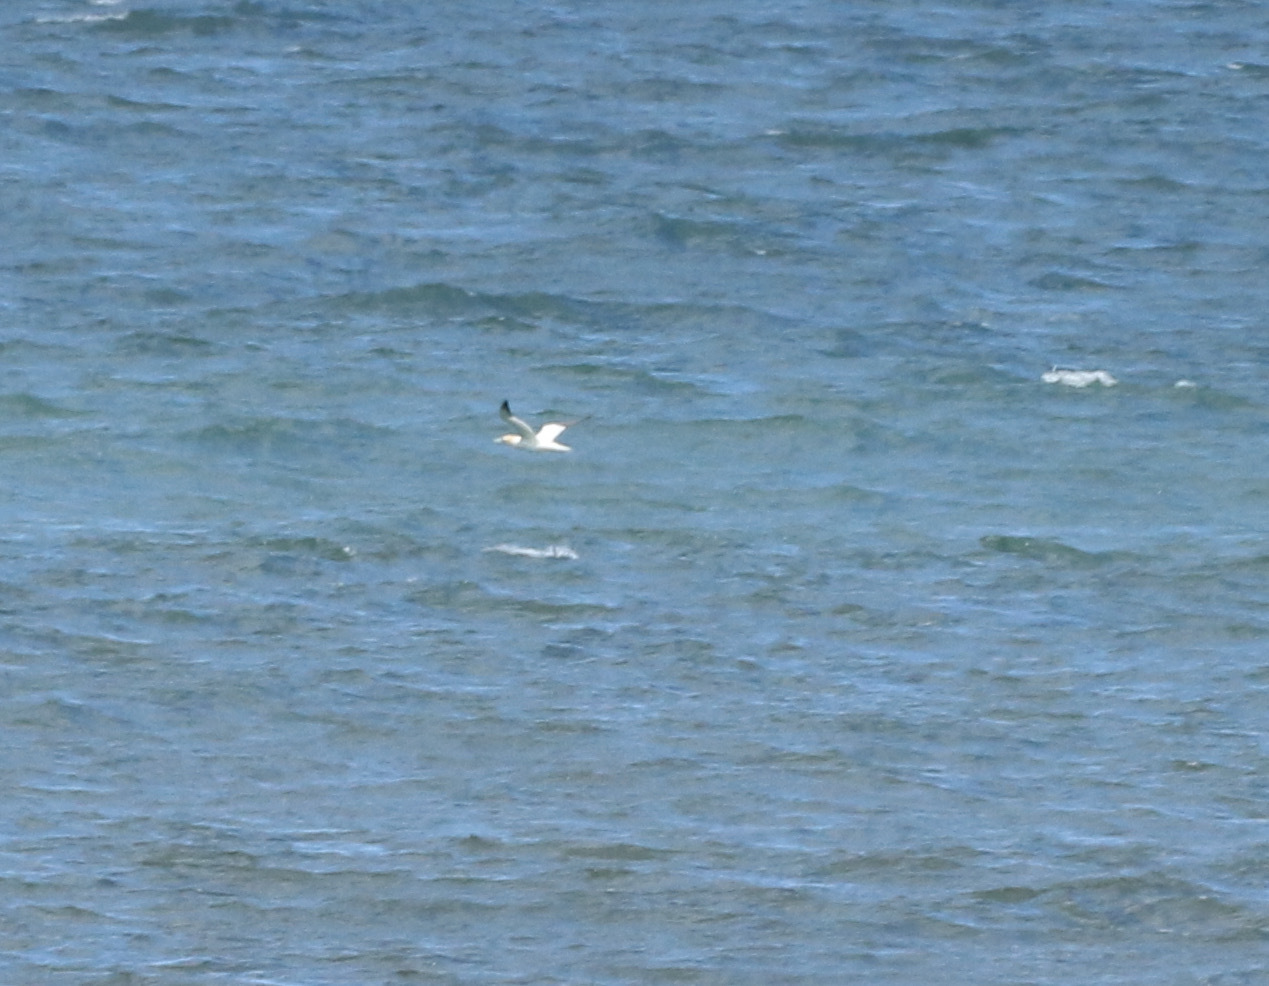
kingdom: Animalia
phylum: Chordata
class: Aves
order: Suliformes
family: Sulidae
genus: Morus
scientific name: Morus bassanus
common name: Northern gannet
